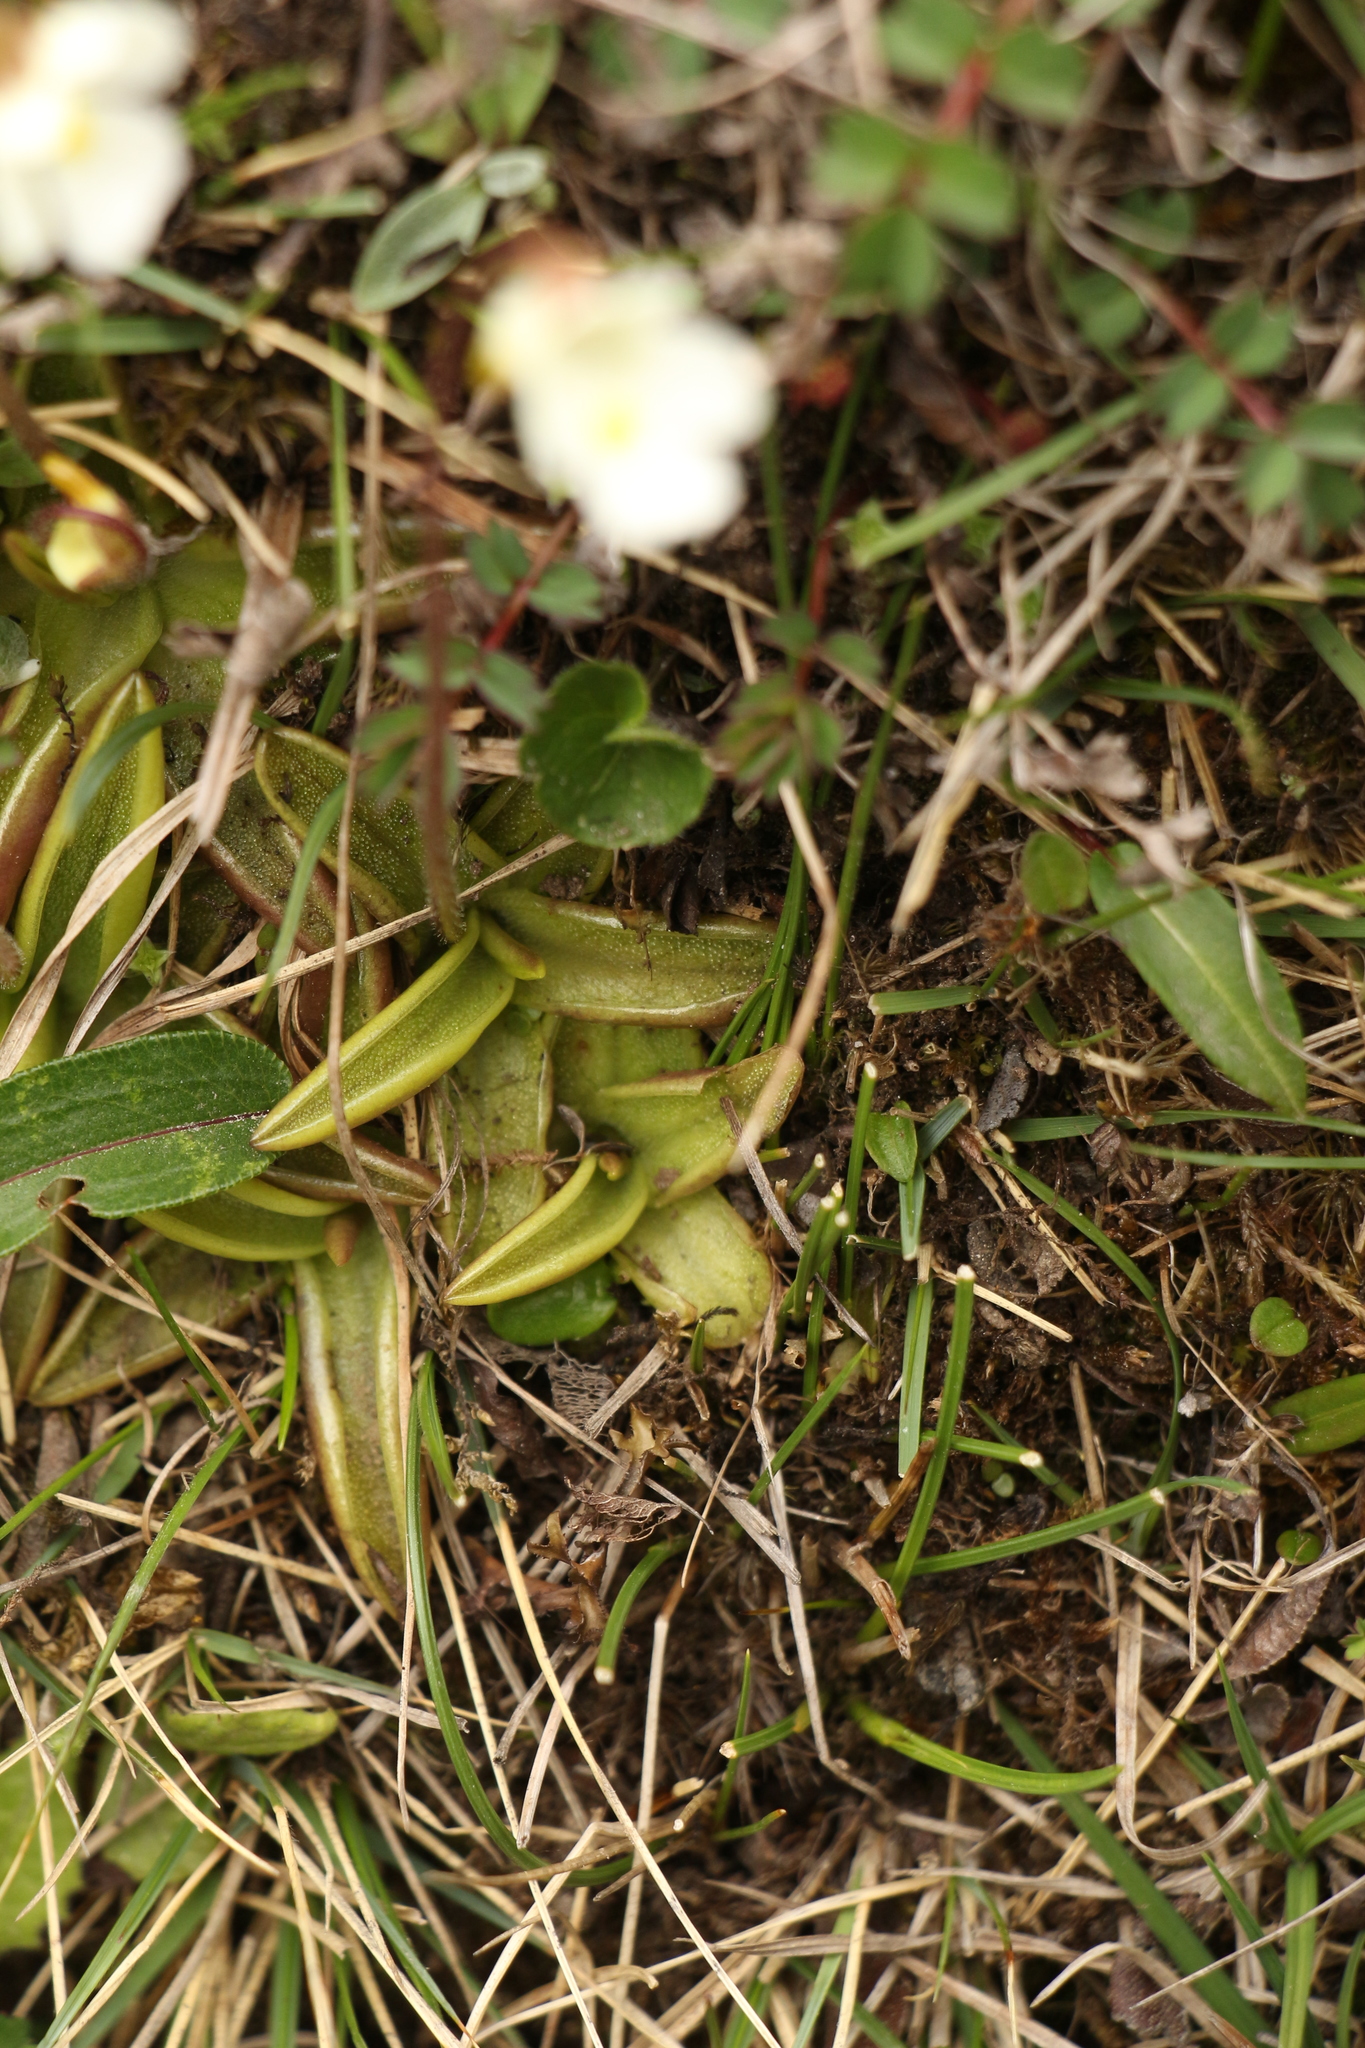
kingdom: Plantae
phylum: Tracheophyta
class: Magnoliopsida
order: Lamiales
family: Lentibulariaceae
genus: Pinguicula
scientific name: Pinguicula alpina
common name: Alpine butterwort
